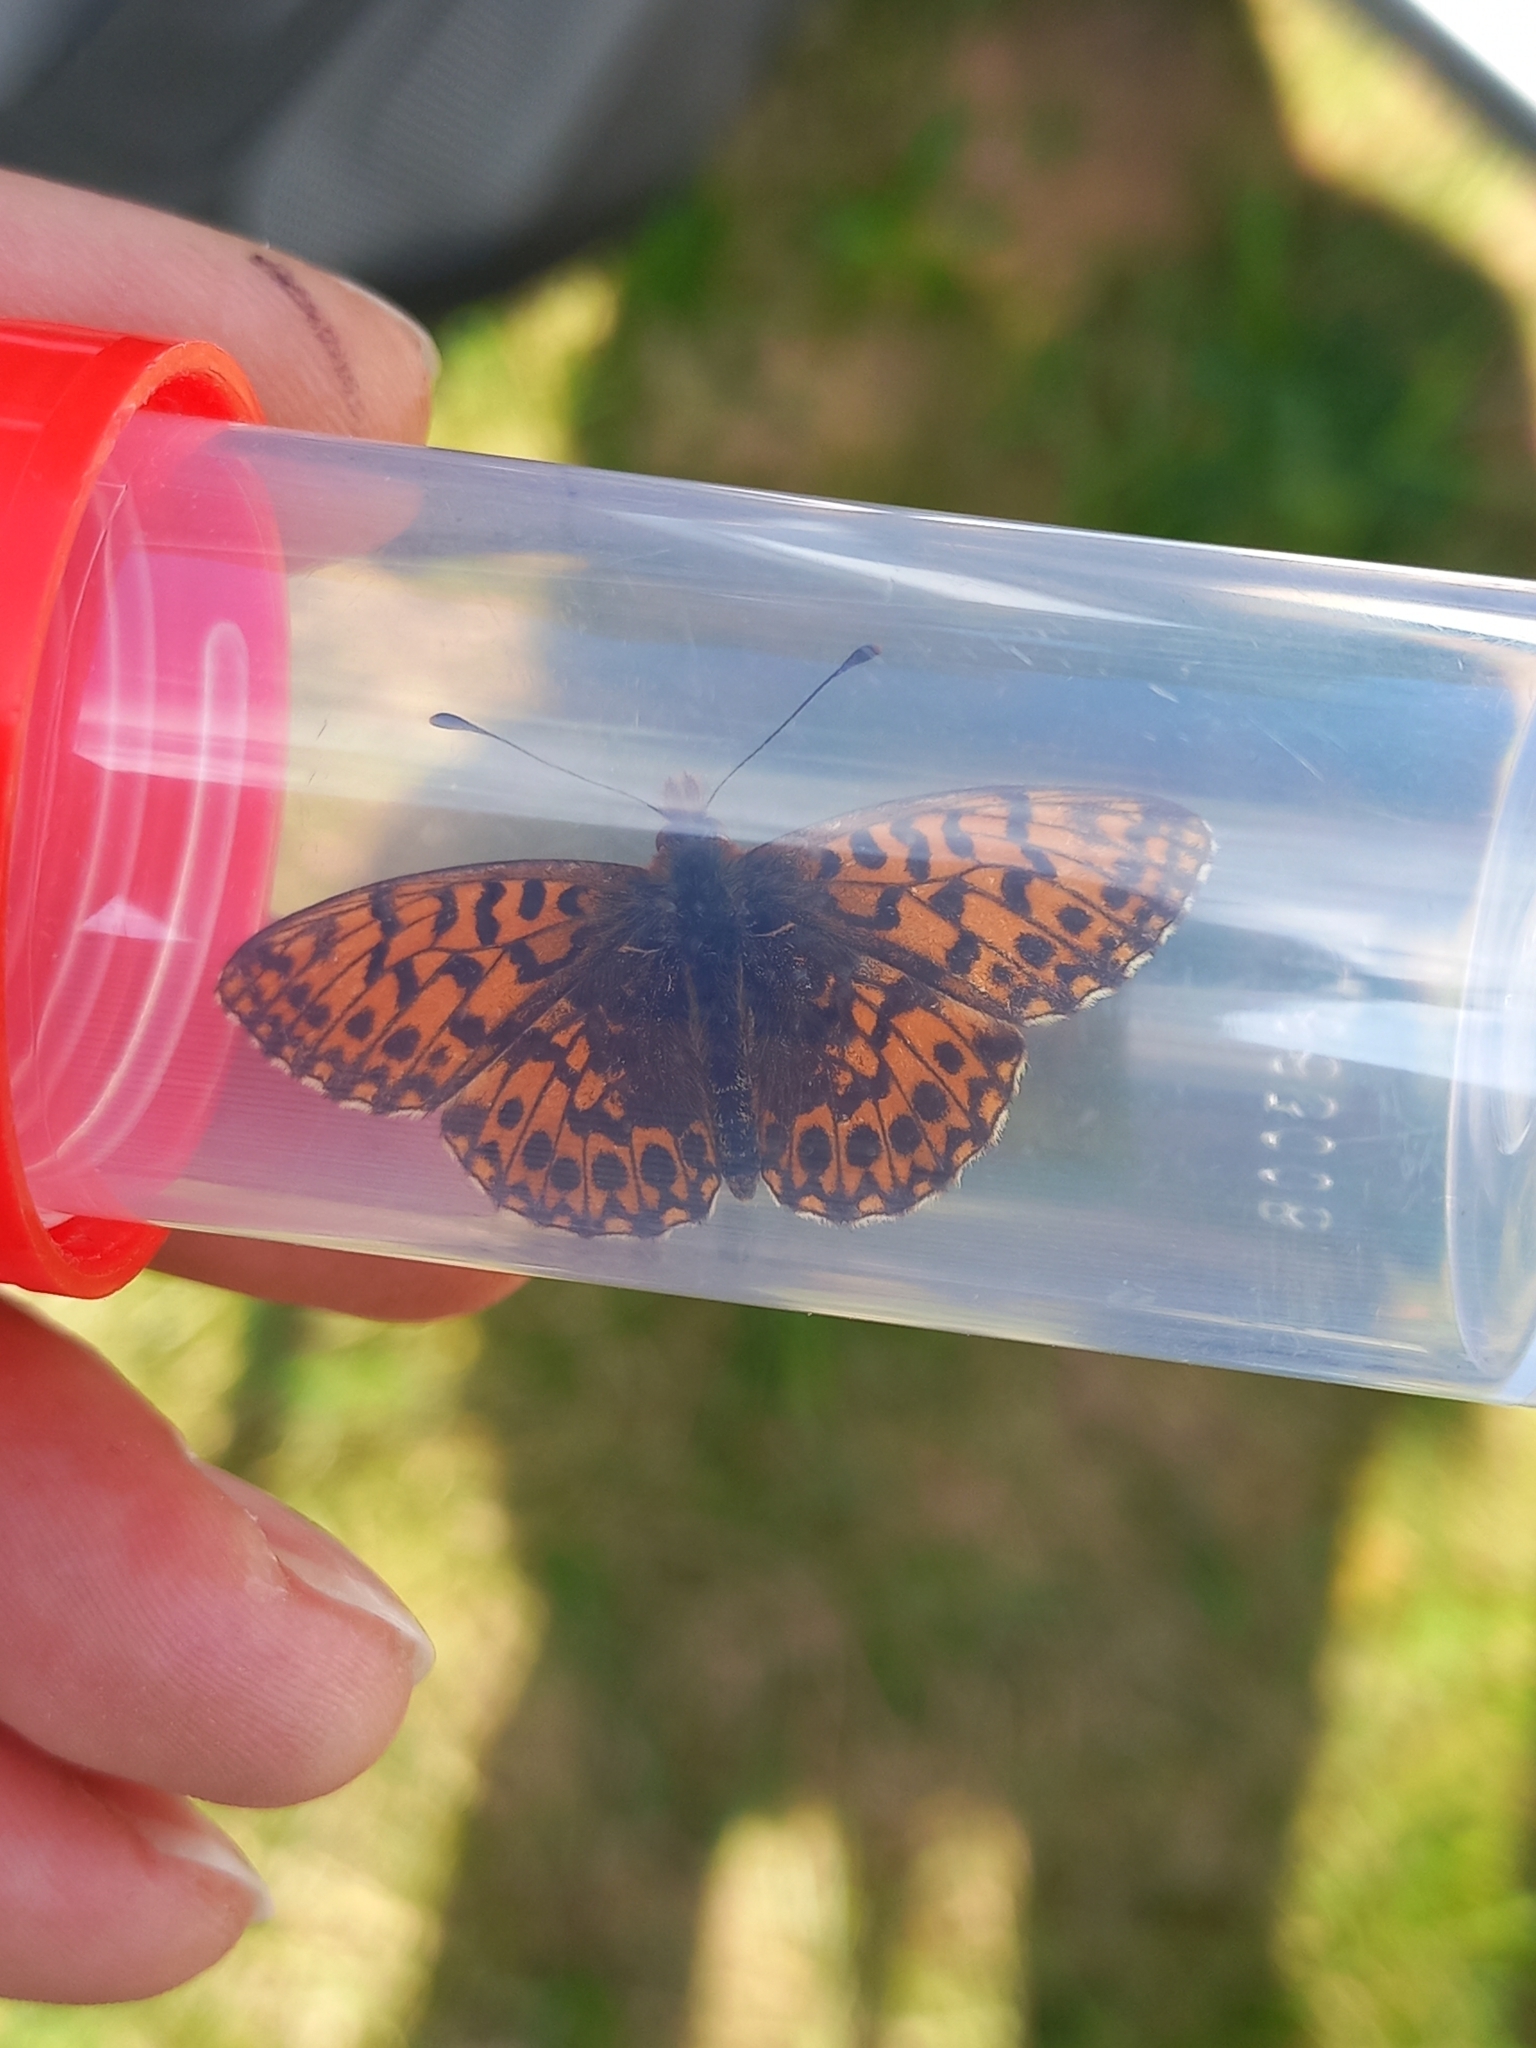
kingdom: Animalia
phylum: Arthropoda
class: Insecta
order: Lepidoptera
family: Nymphalidae
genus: Boloria
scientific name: Boloria dia
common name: Weaver's fritillary
